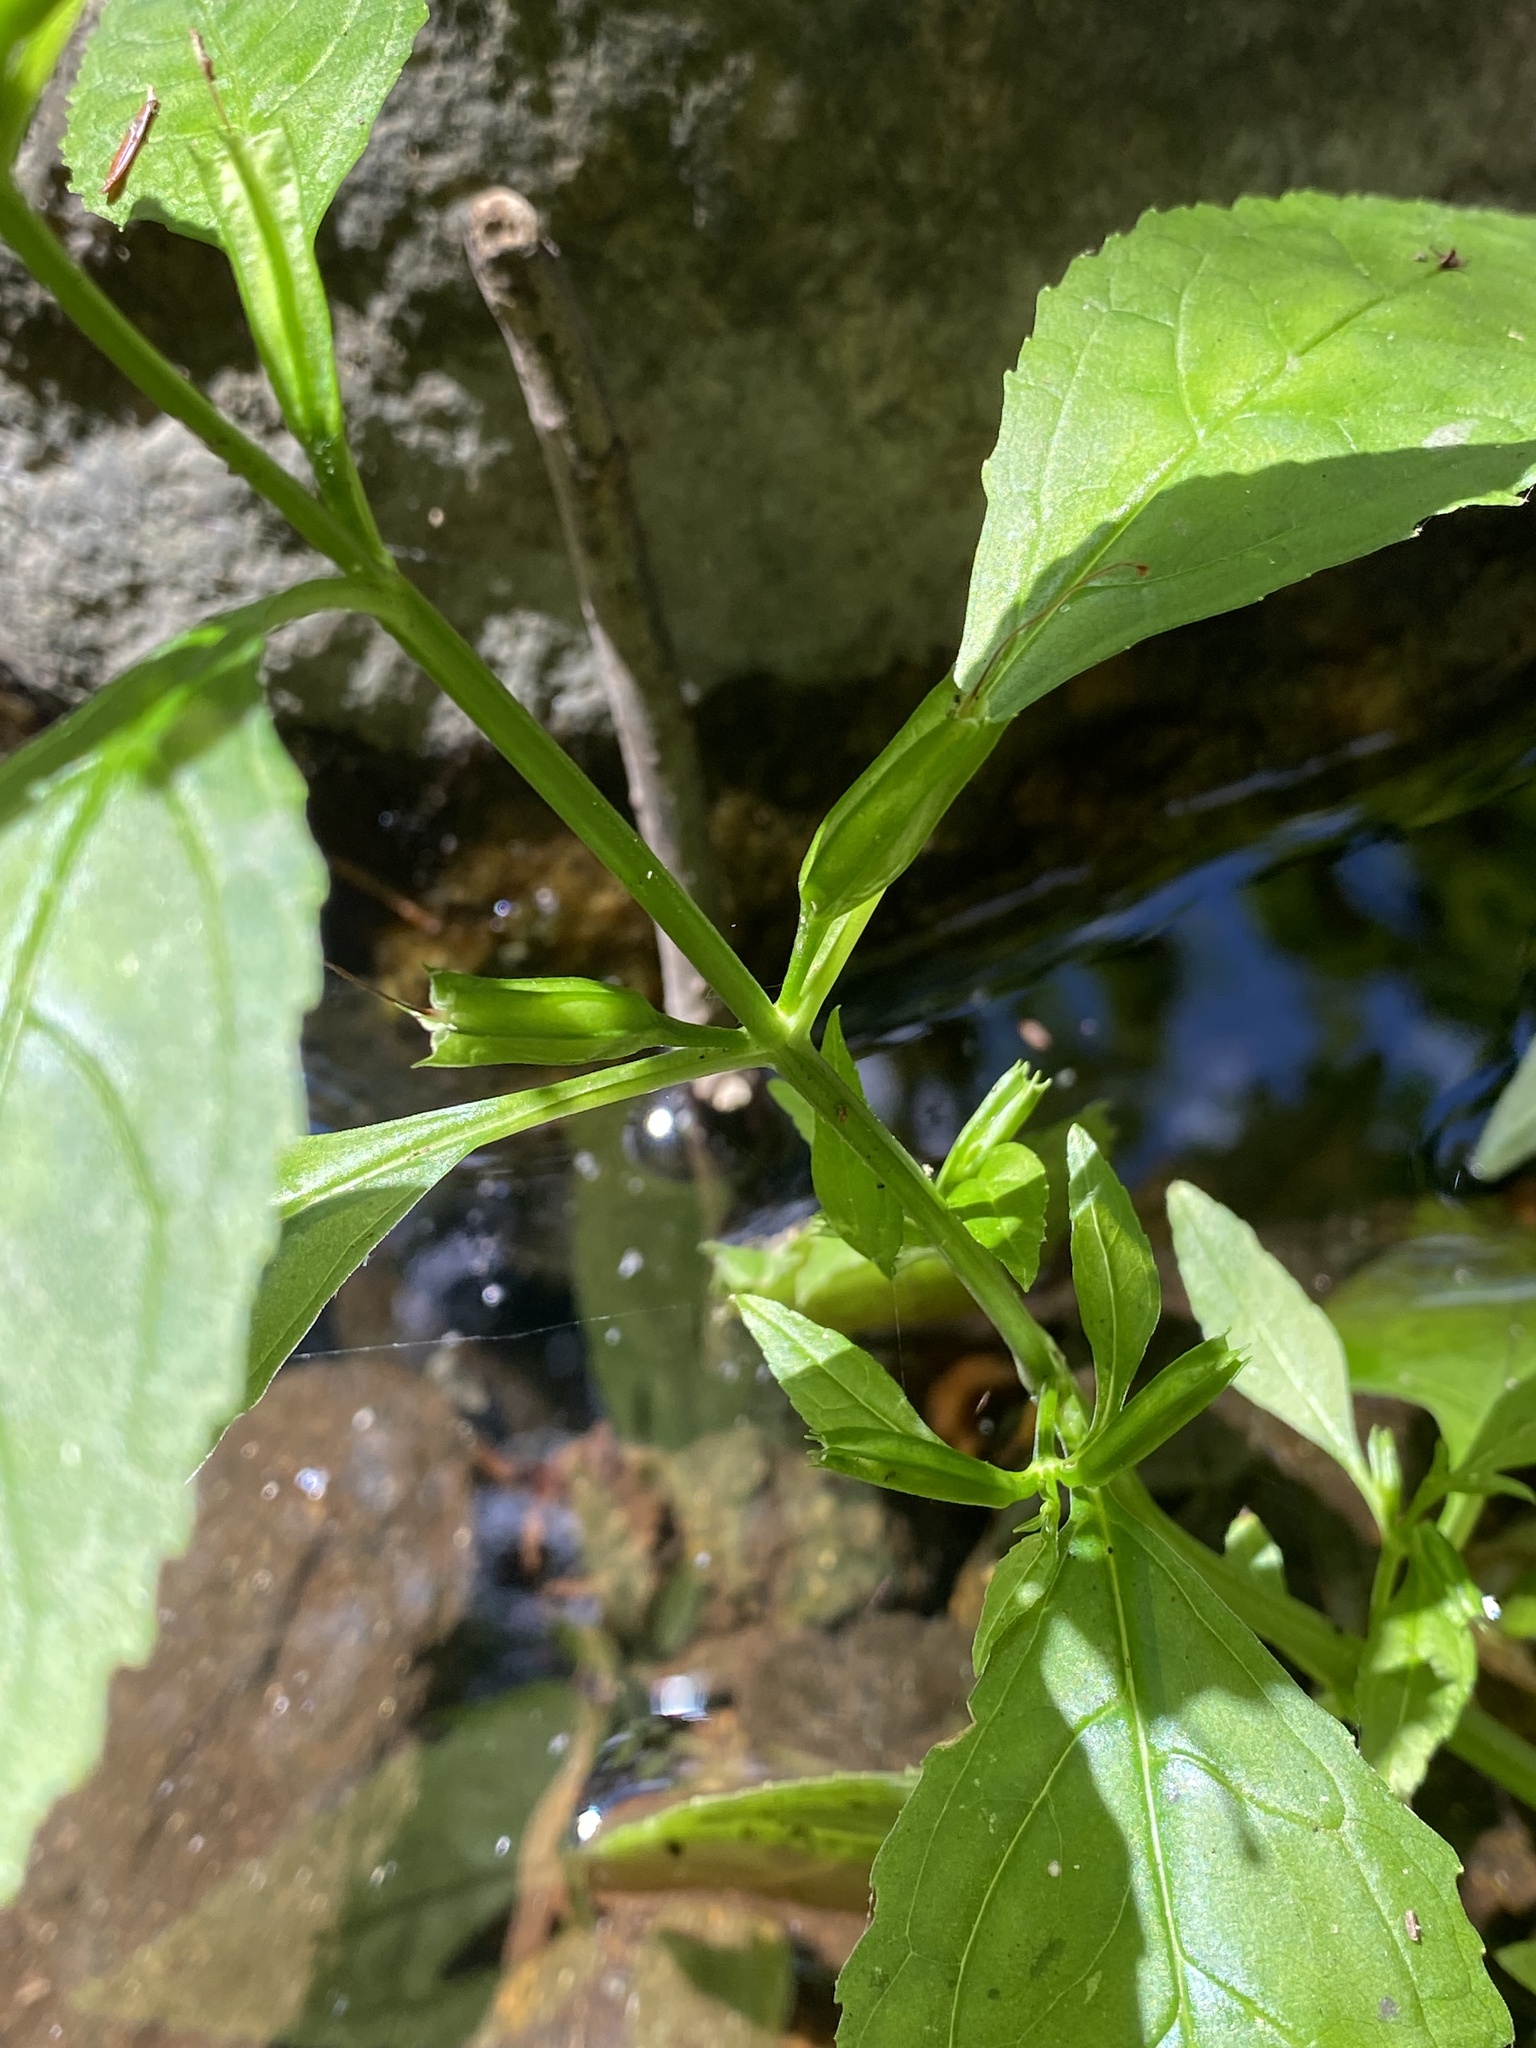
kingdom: Plantae
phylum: Tracheophyta
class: Magnoliopsida
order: Lamiales
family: Phrymaceae
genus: Mimulus
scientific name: Mimulus alatus
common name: Sharp-wing monkey-flower
